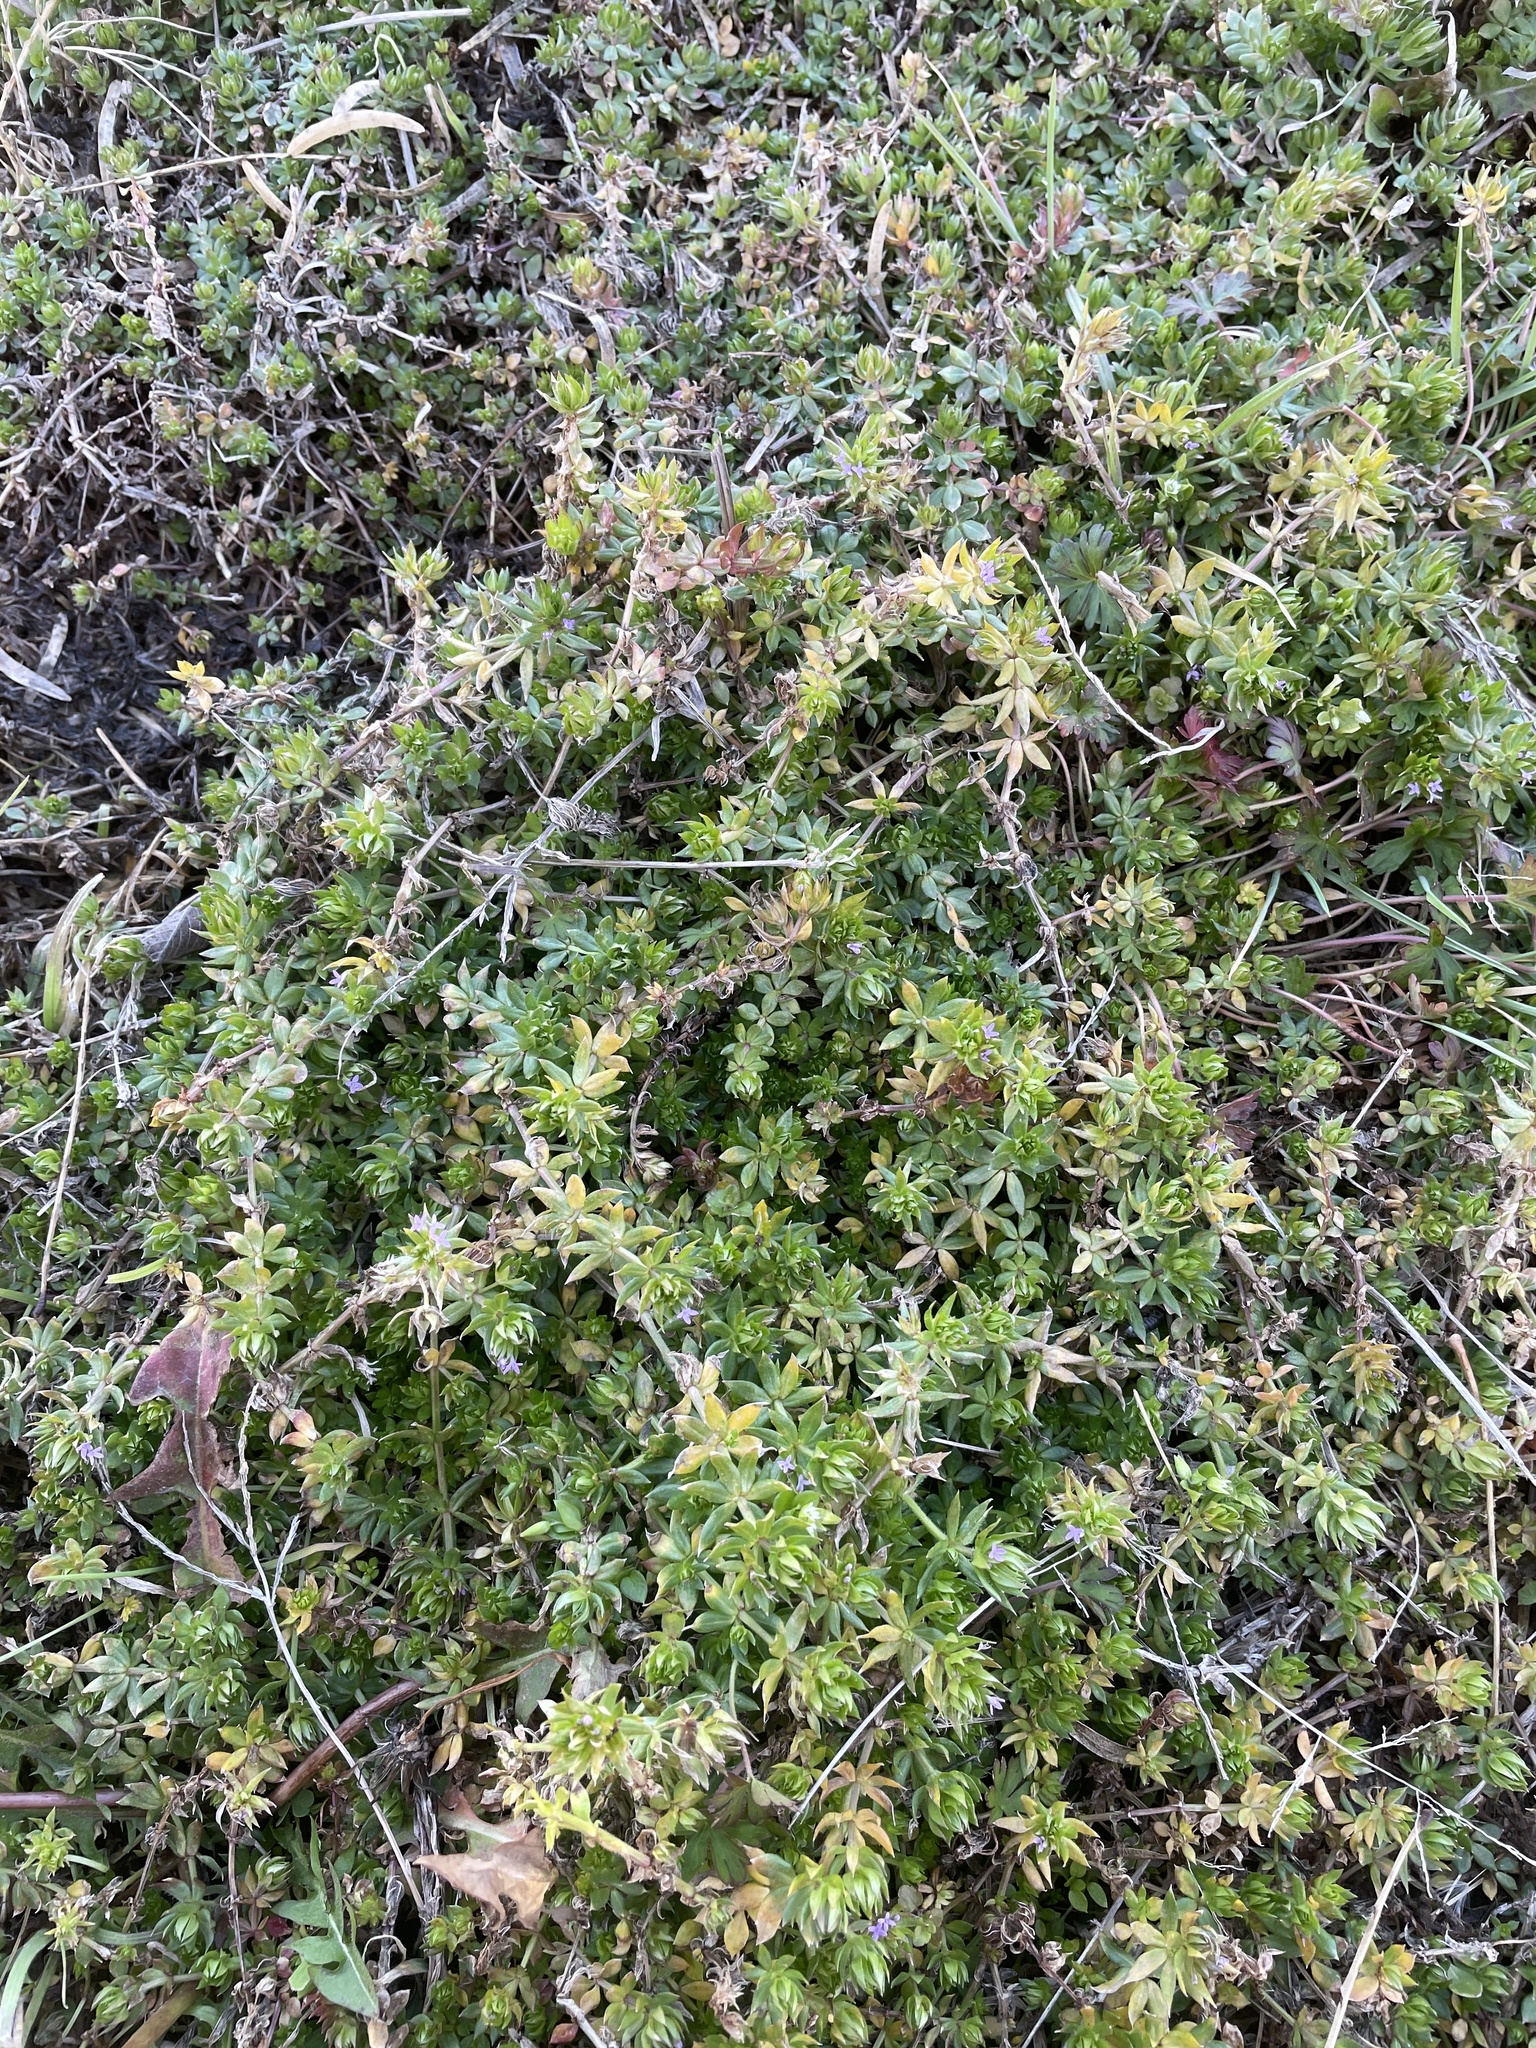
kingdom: Plantae
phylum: Tracheophyta
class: Magnoliopsida
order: Gentianales
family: Rubiaceae
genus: Sherardia
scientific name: Sherardia arvensis
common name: Field madder
